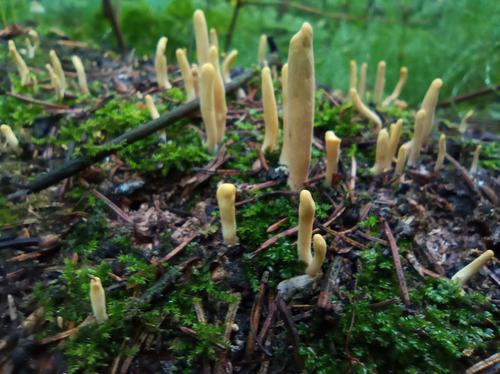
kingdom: Fungi
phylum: Basidiomycota
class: Agaricomycetes
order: Gomphales
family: Clavariadelphaceae
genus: Clavariadelphus
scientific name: Clavariadelphus ligula
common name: Ochre club
